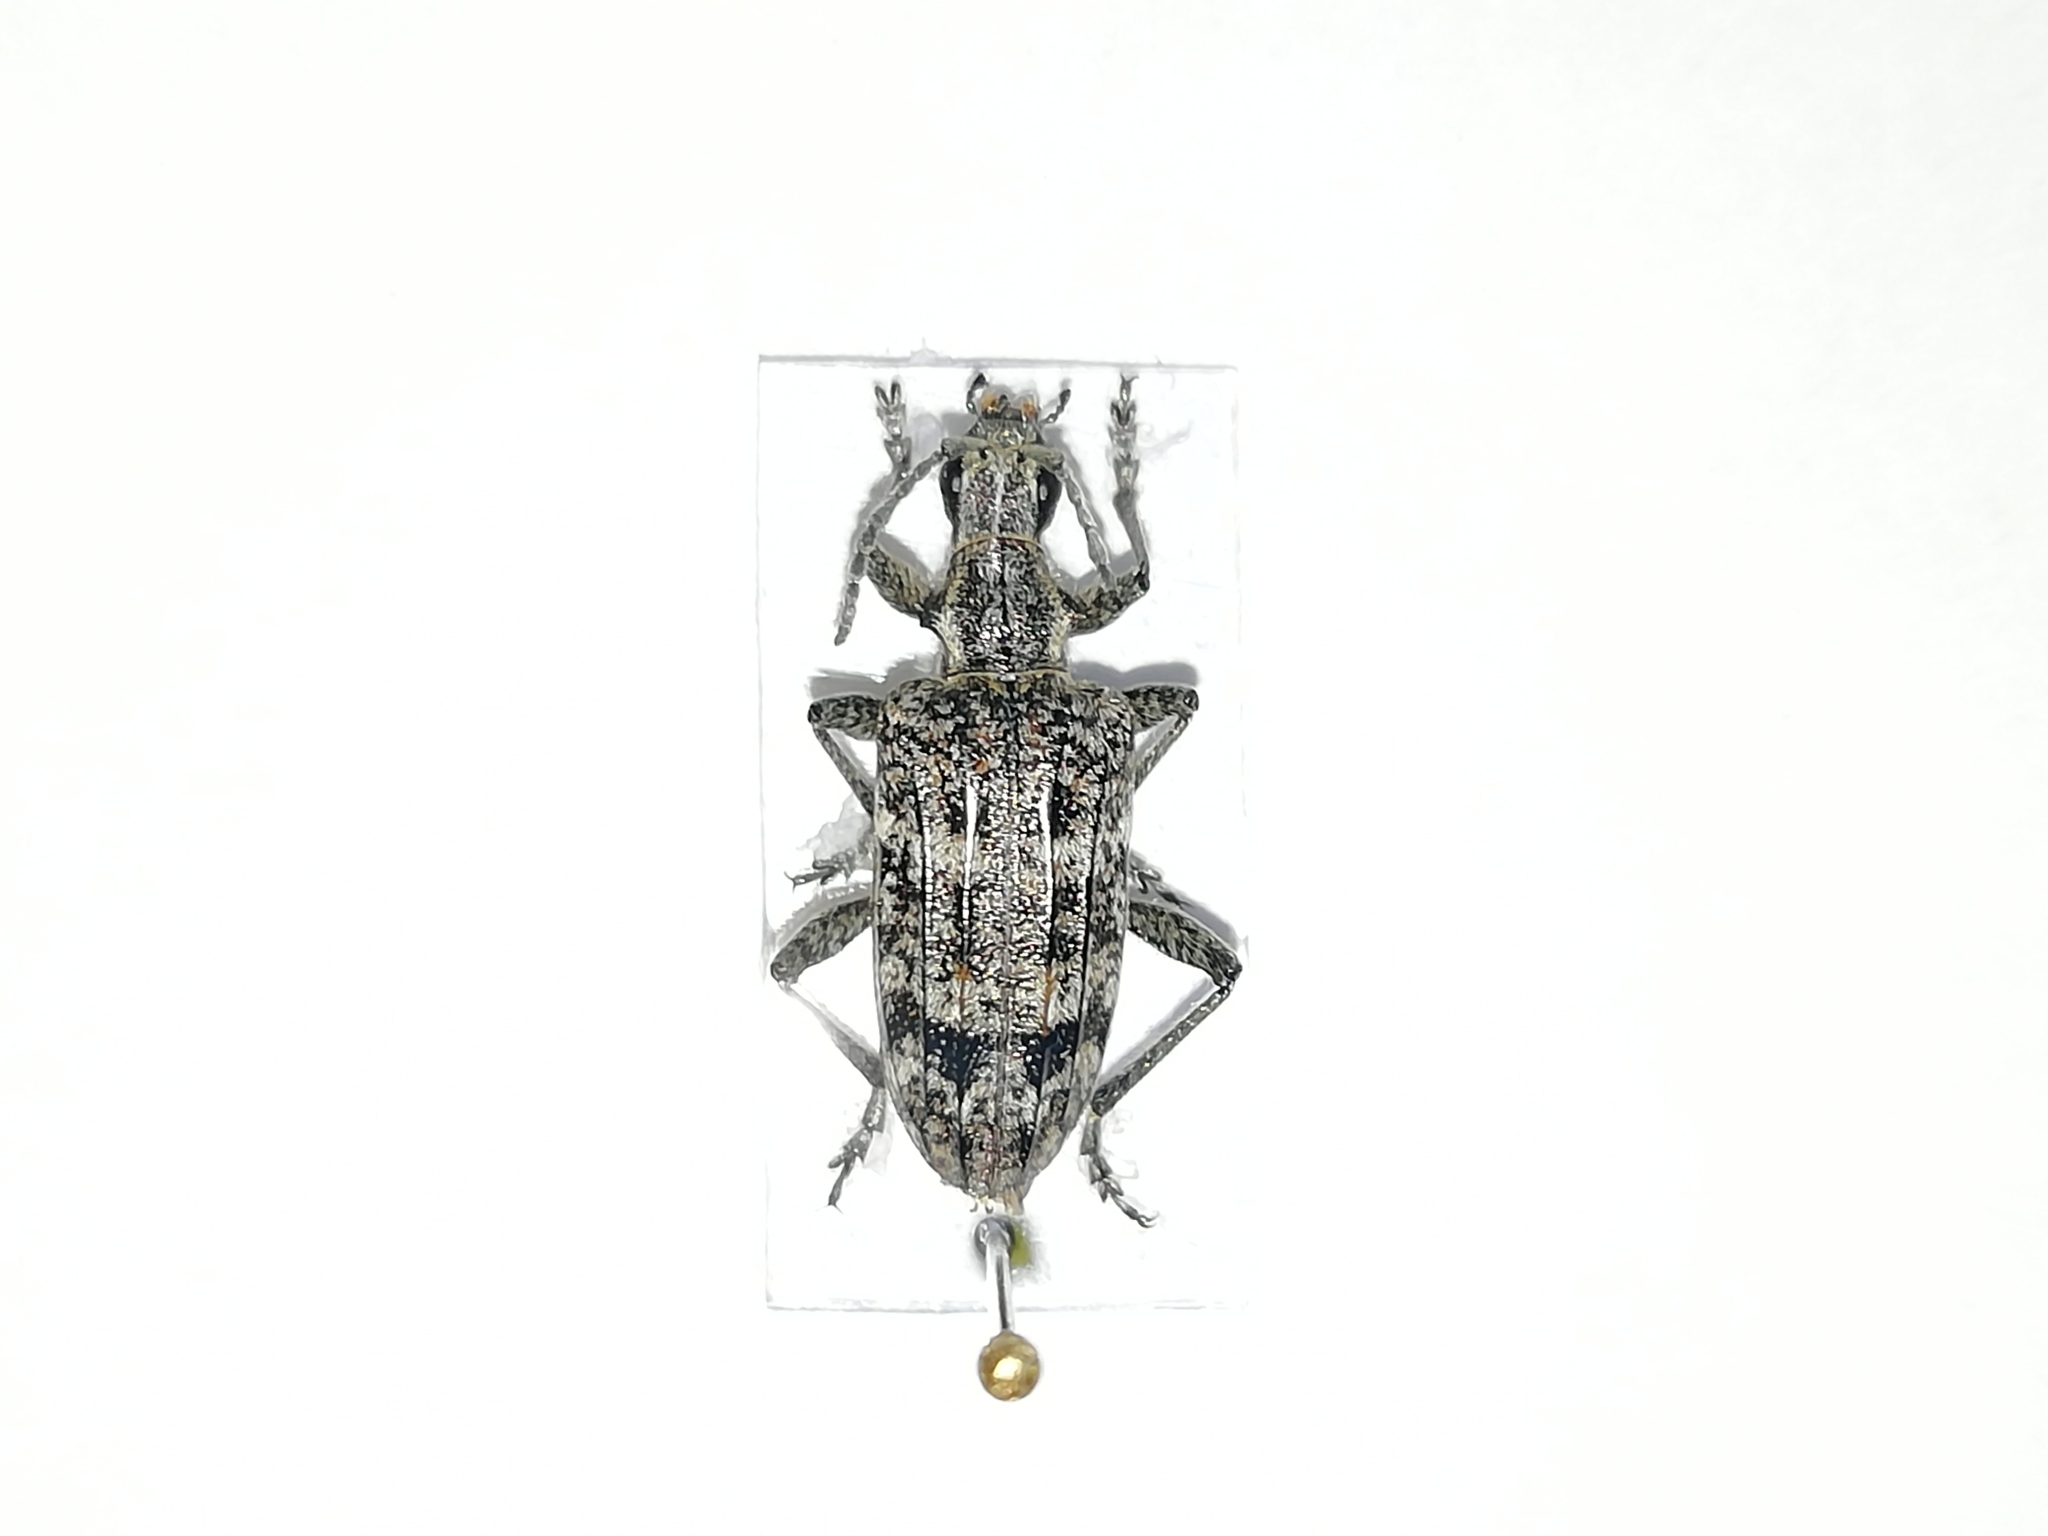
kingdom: Animalia
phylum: Arthropoda
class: Insecta
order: Coleoptera
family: Cerambycidae
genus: Rhagium
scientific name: Rhagium inquisitor
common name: Ribbed pine borer
